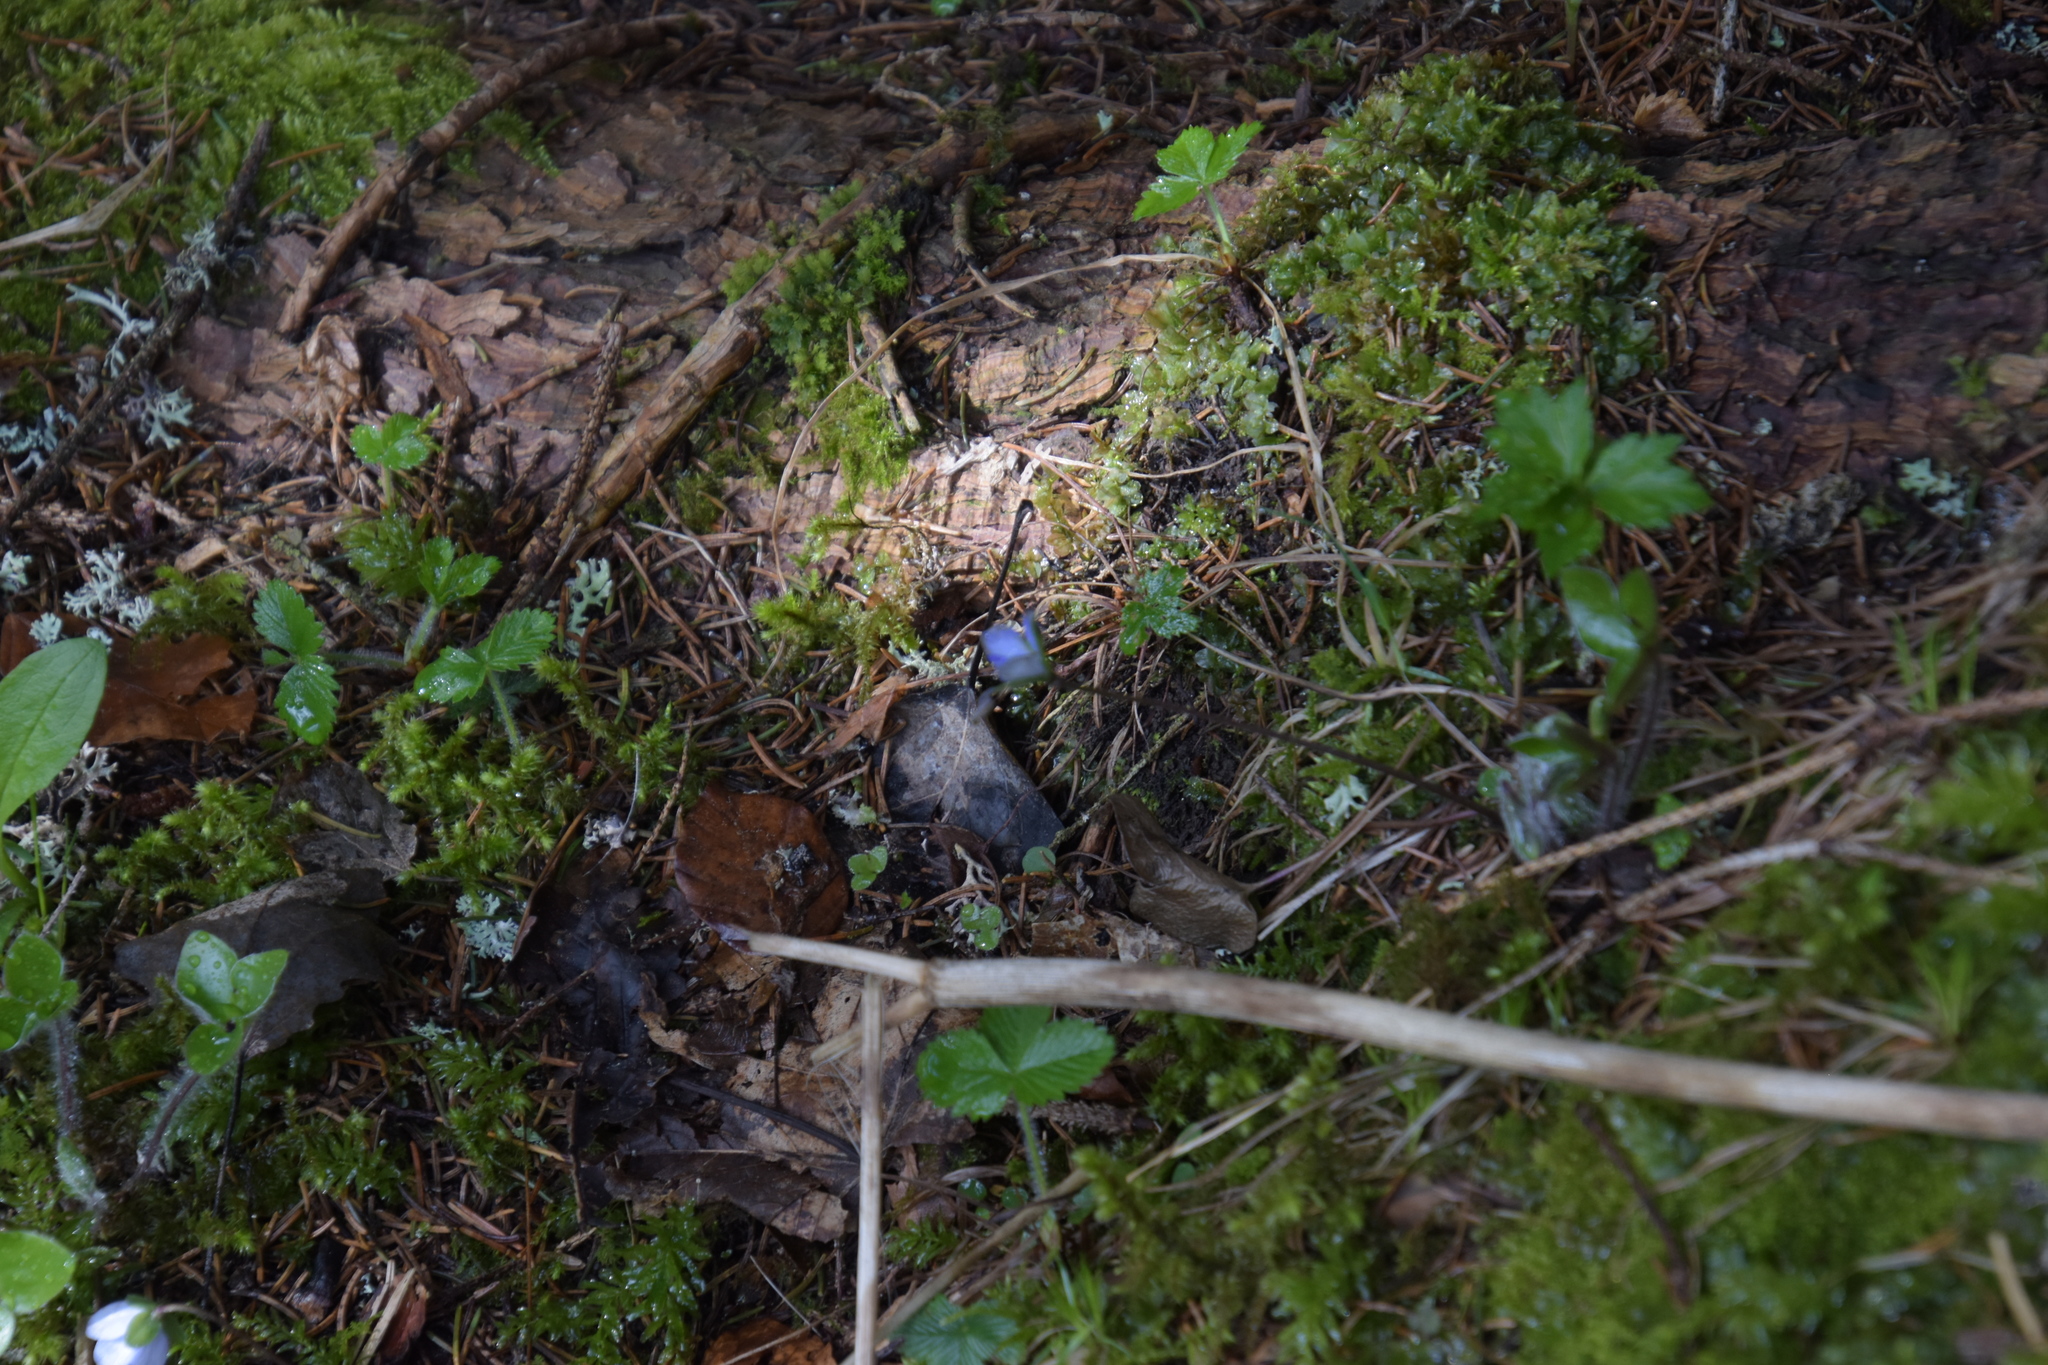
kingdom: Plantae
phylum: Tracheophyta
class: Magnoliopsida
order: Ranunculales
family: Ranunculaceae
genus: Hepatica
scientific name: Hepatica nobilis
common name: Liverleaf
